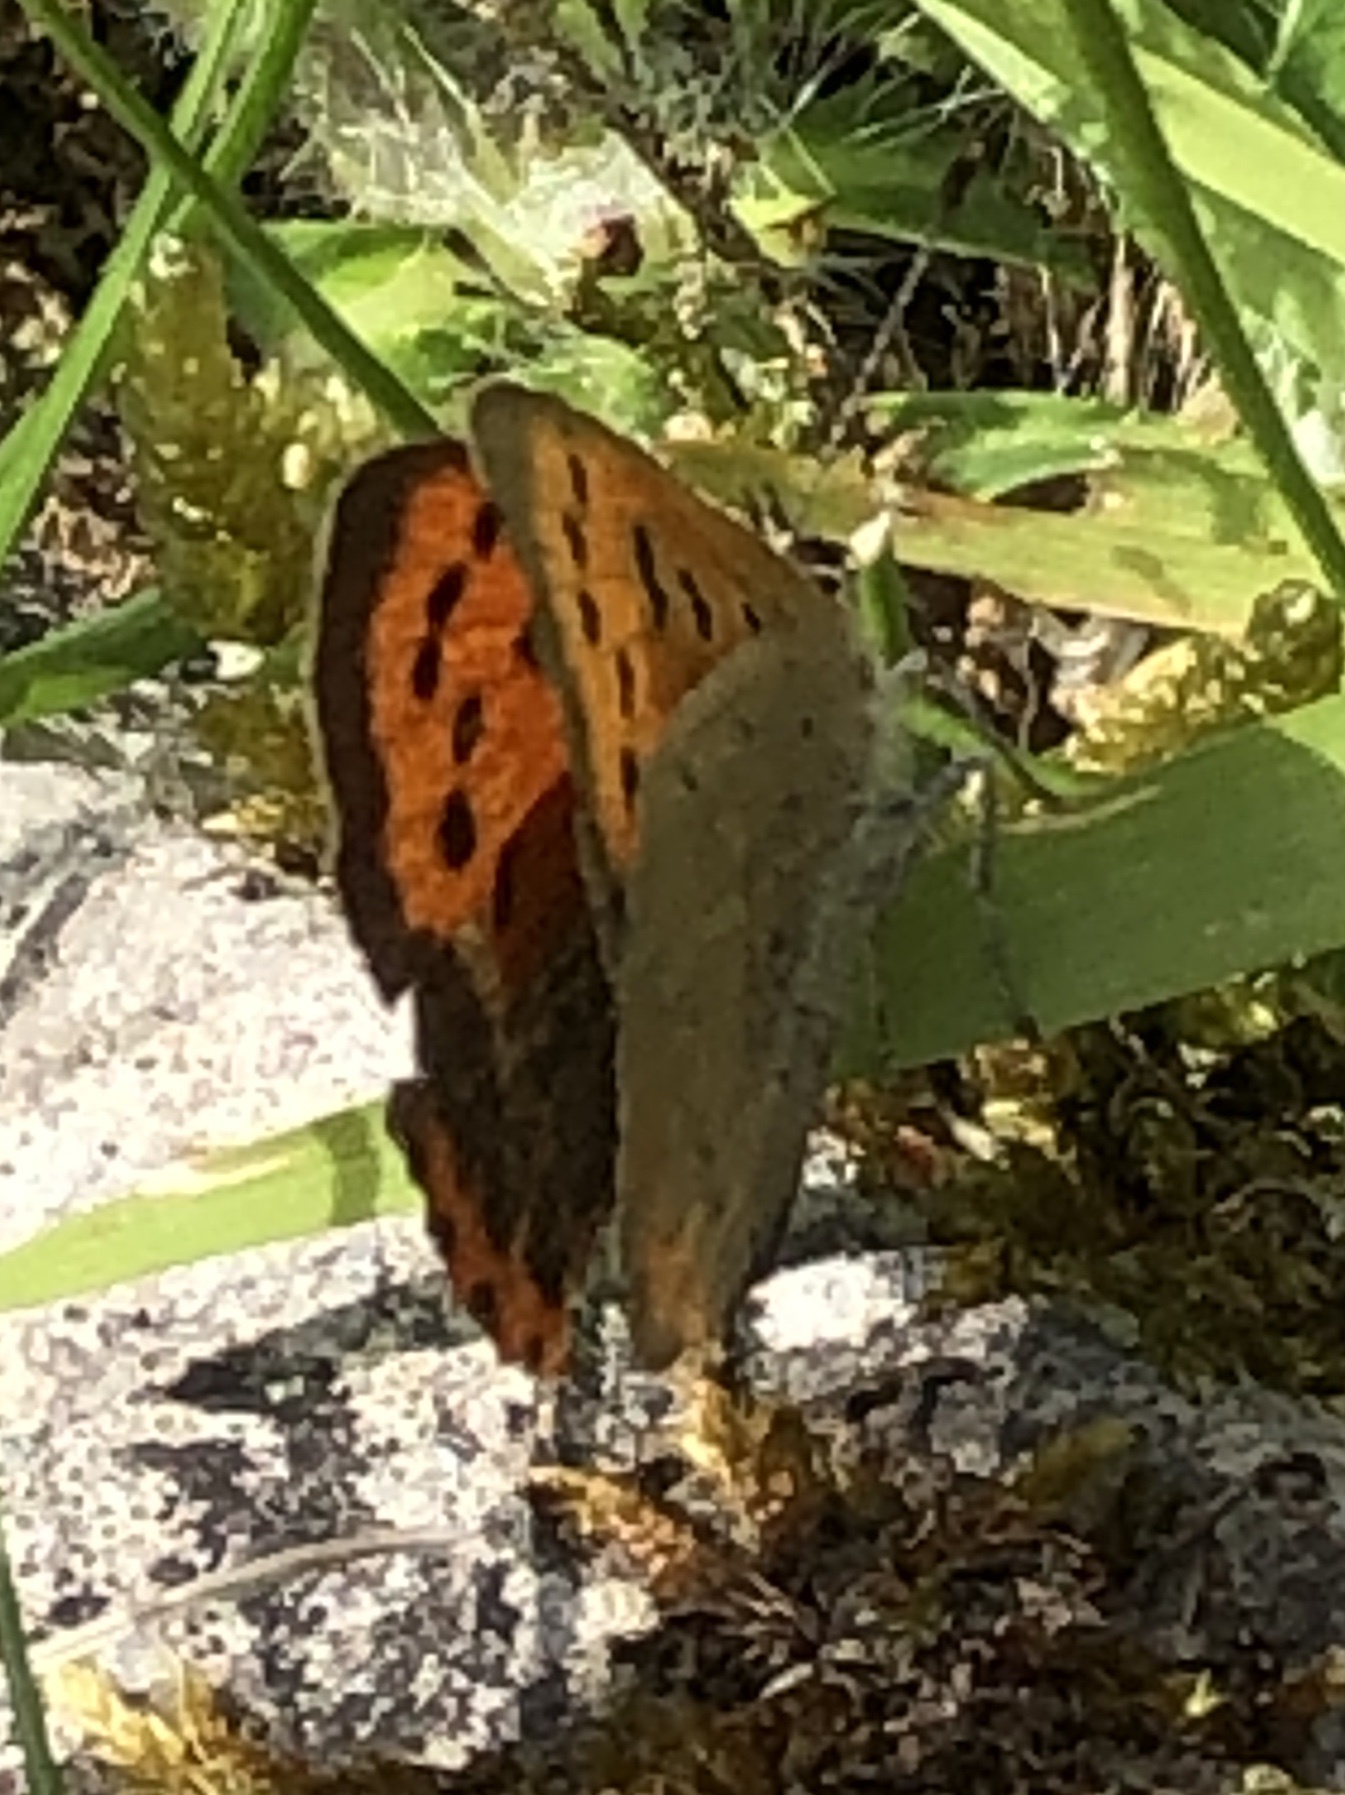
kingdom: Animalia
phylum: Arthropoda
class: Insecta
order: Lepidoptera
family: Lycaenidae
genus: Lycaena
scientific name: Lycaena phlaeas
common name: Small copper
